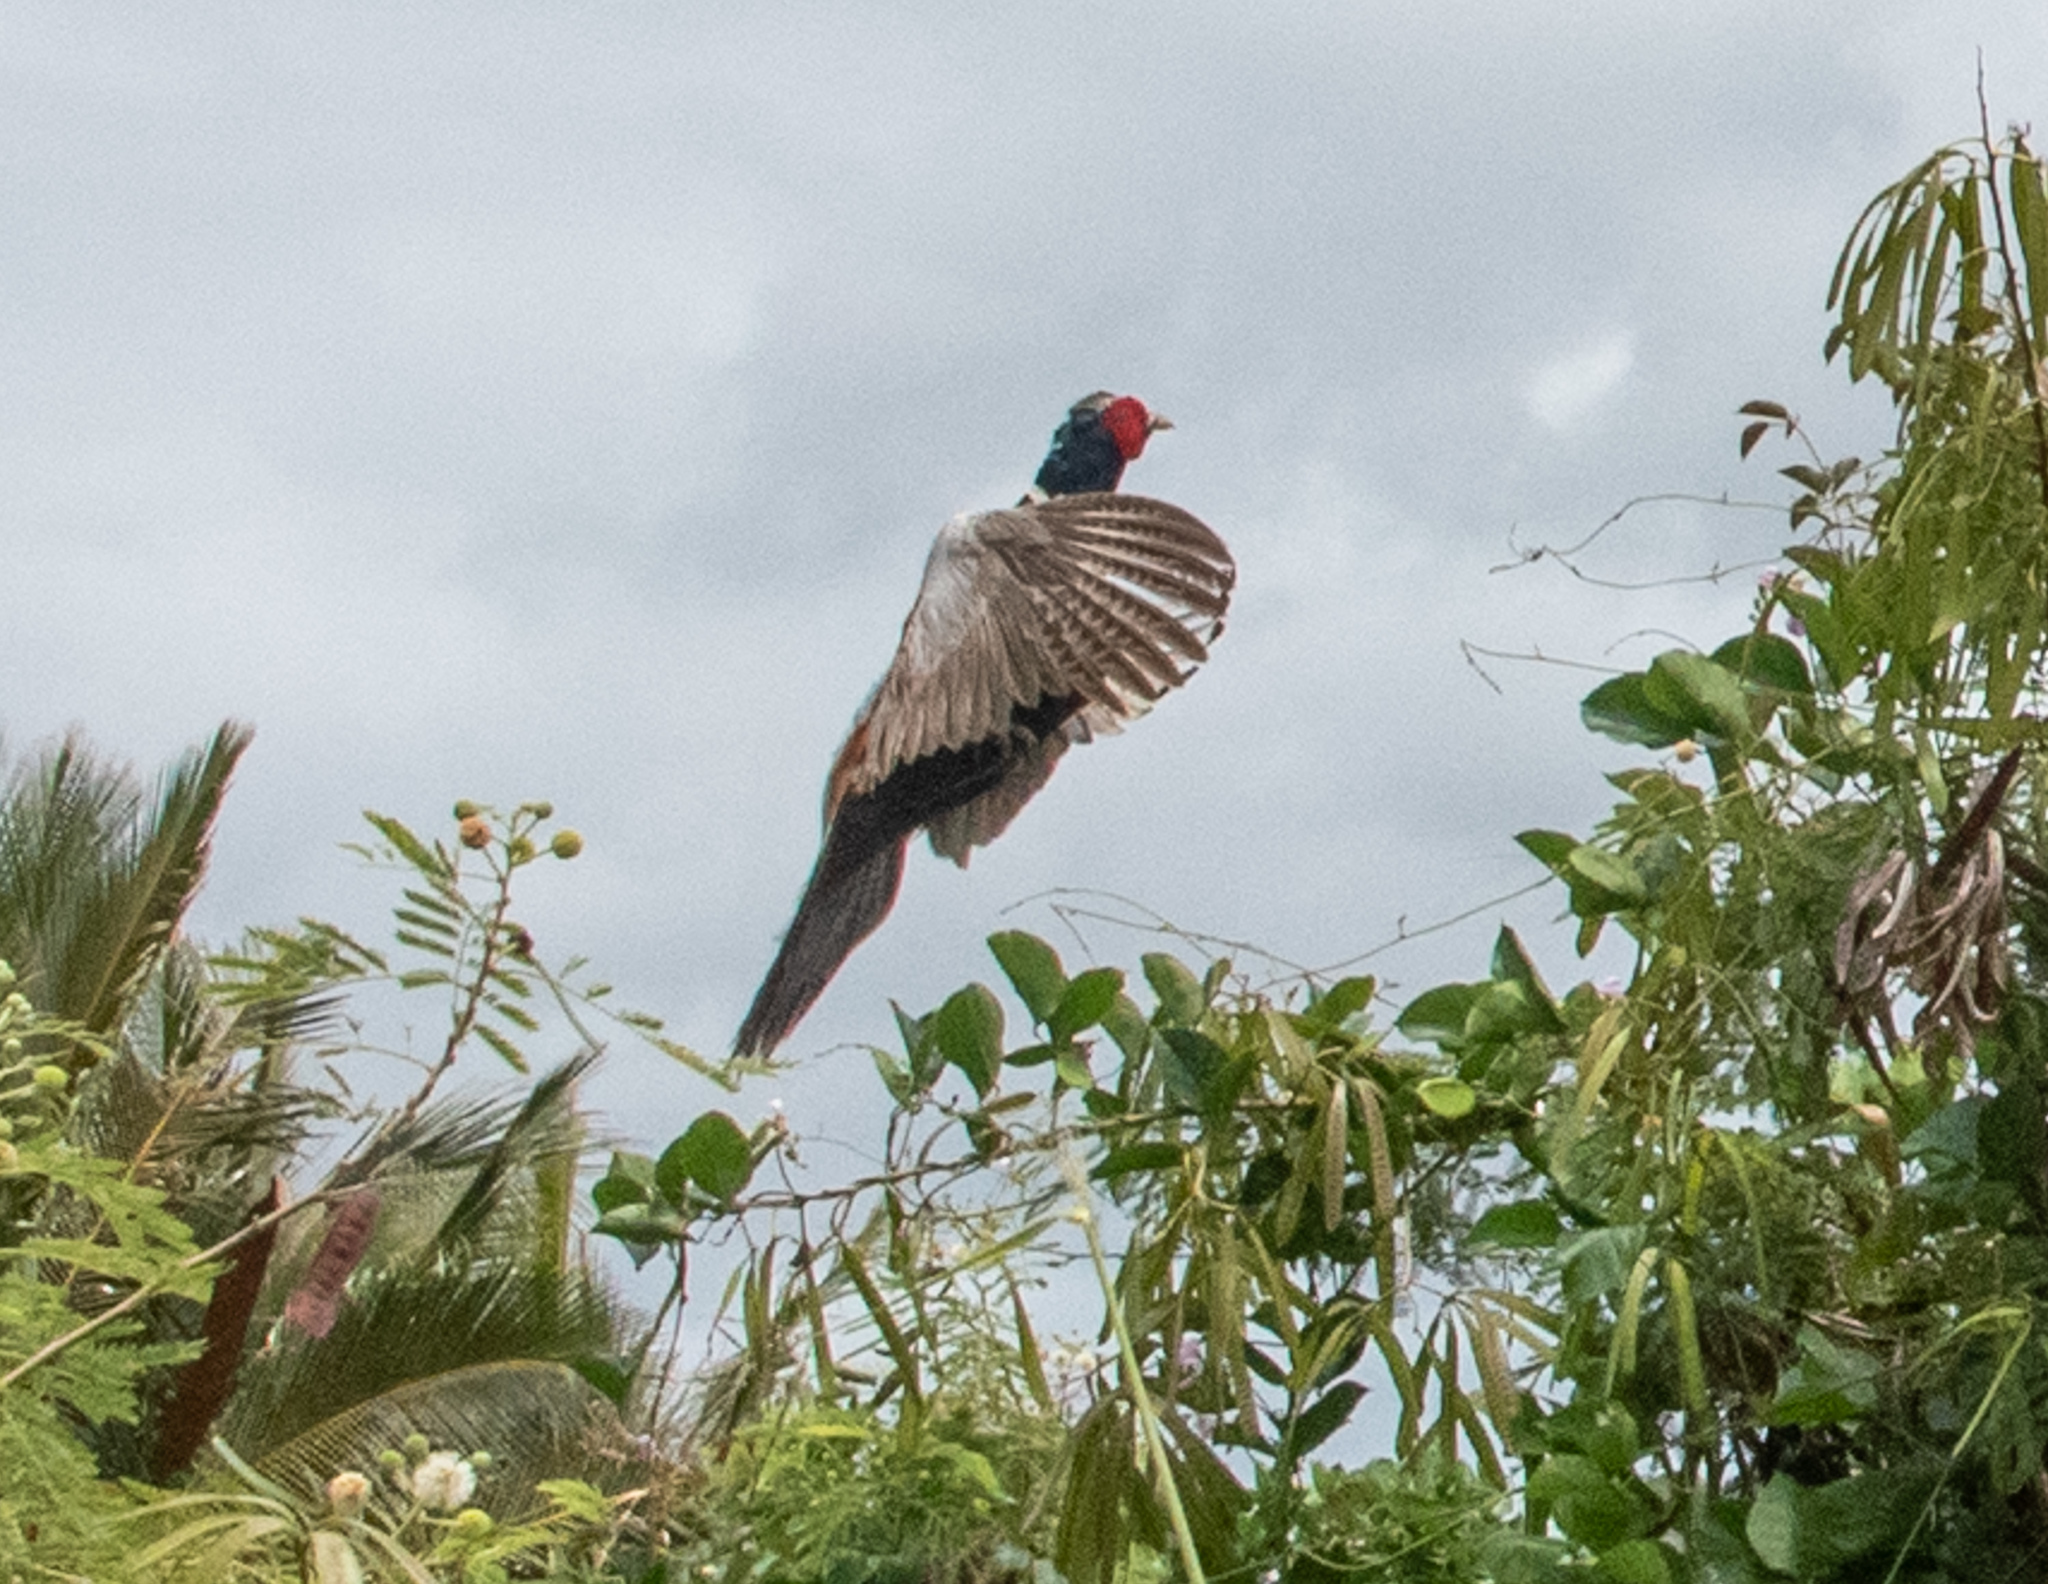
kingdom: Animalia
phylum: Chordata
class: Aves
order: Galliformes
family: Phasianidae
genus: Phasianus
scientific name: Phasianus colchicus
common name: Common pheasant
